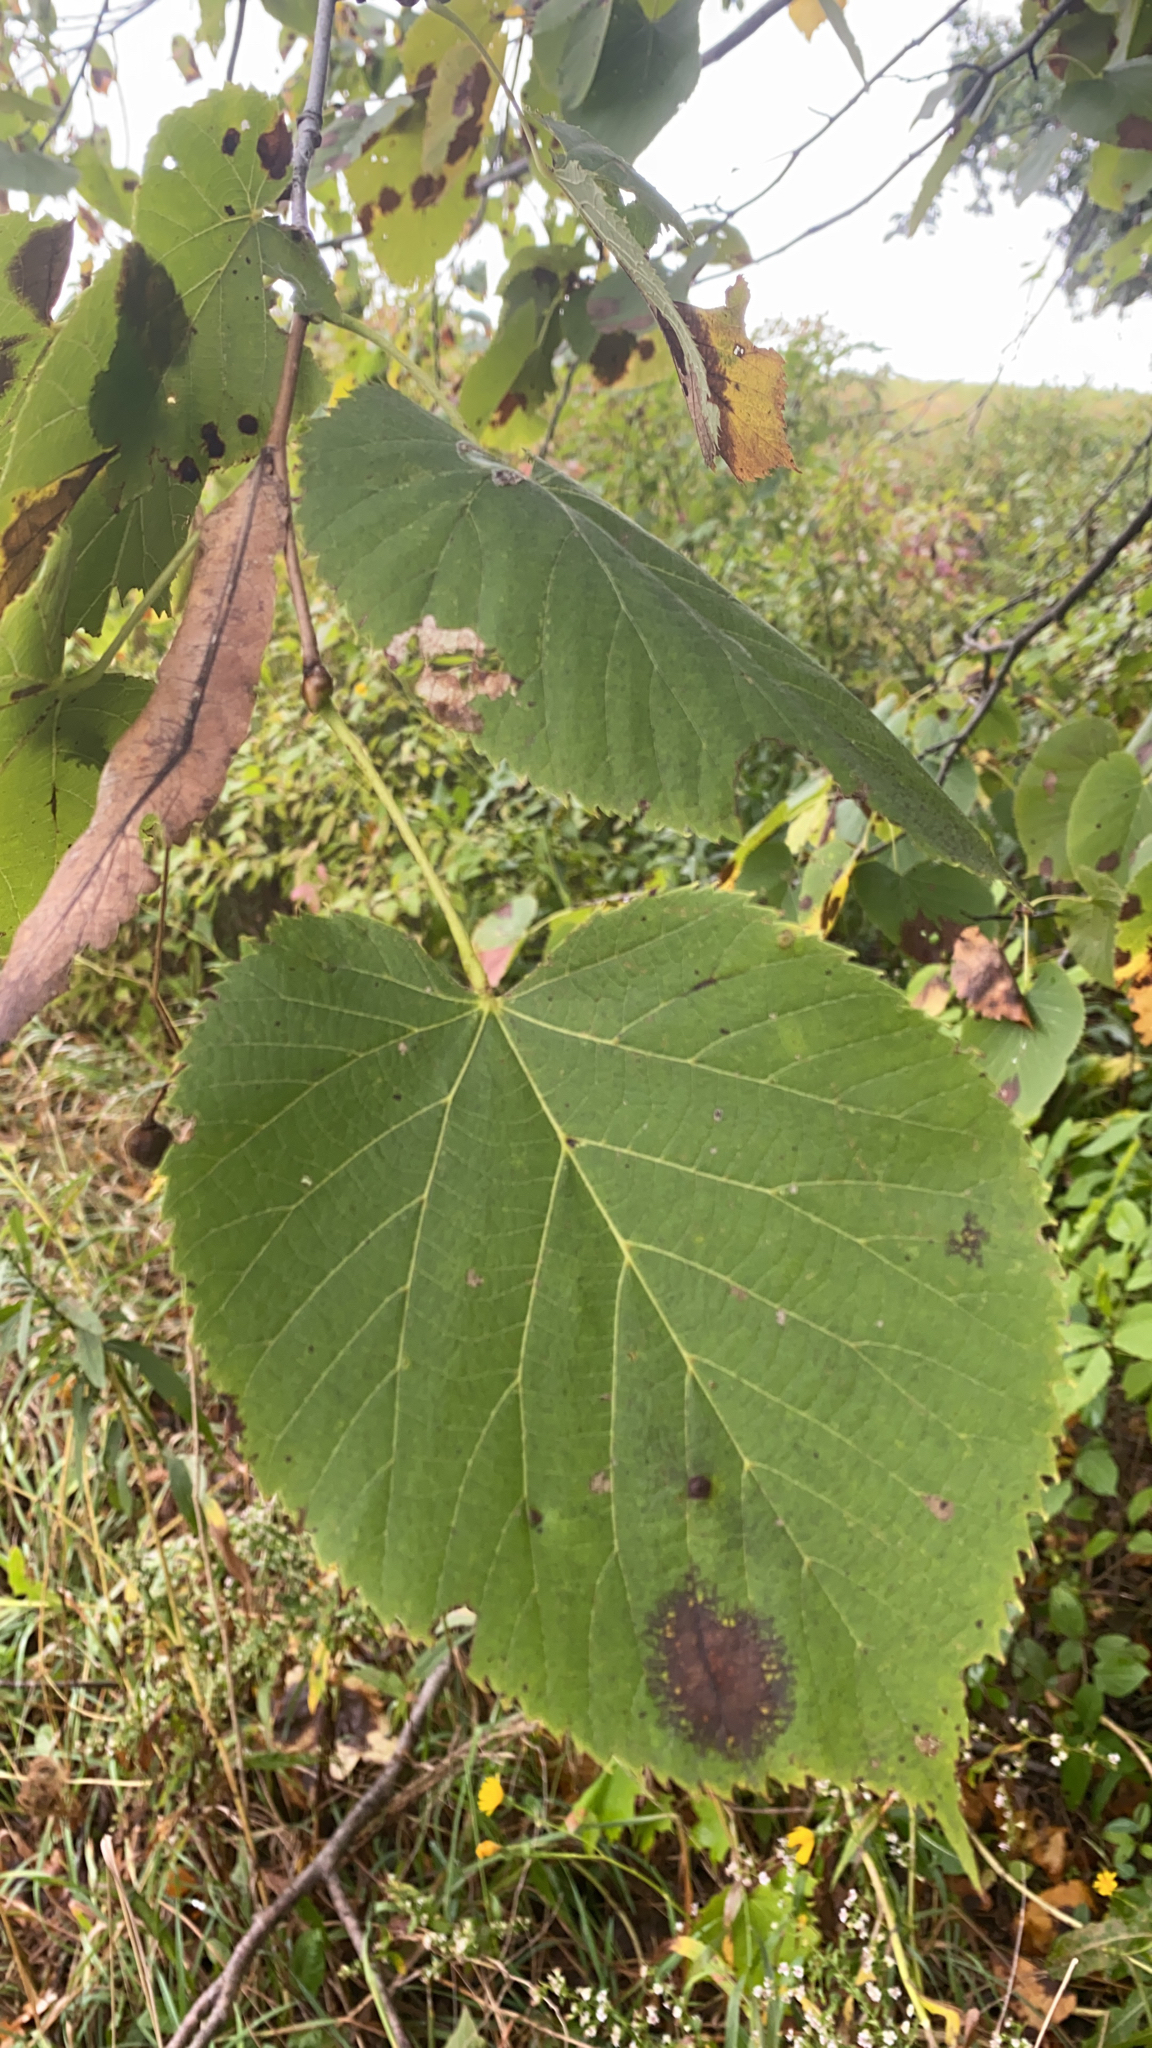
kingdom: Plantae
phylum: Tracheophyta
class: Magnoliopsida
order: Malvales
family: Malvaceae
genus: Tilia
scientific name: Tilia americana
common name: Basswood
